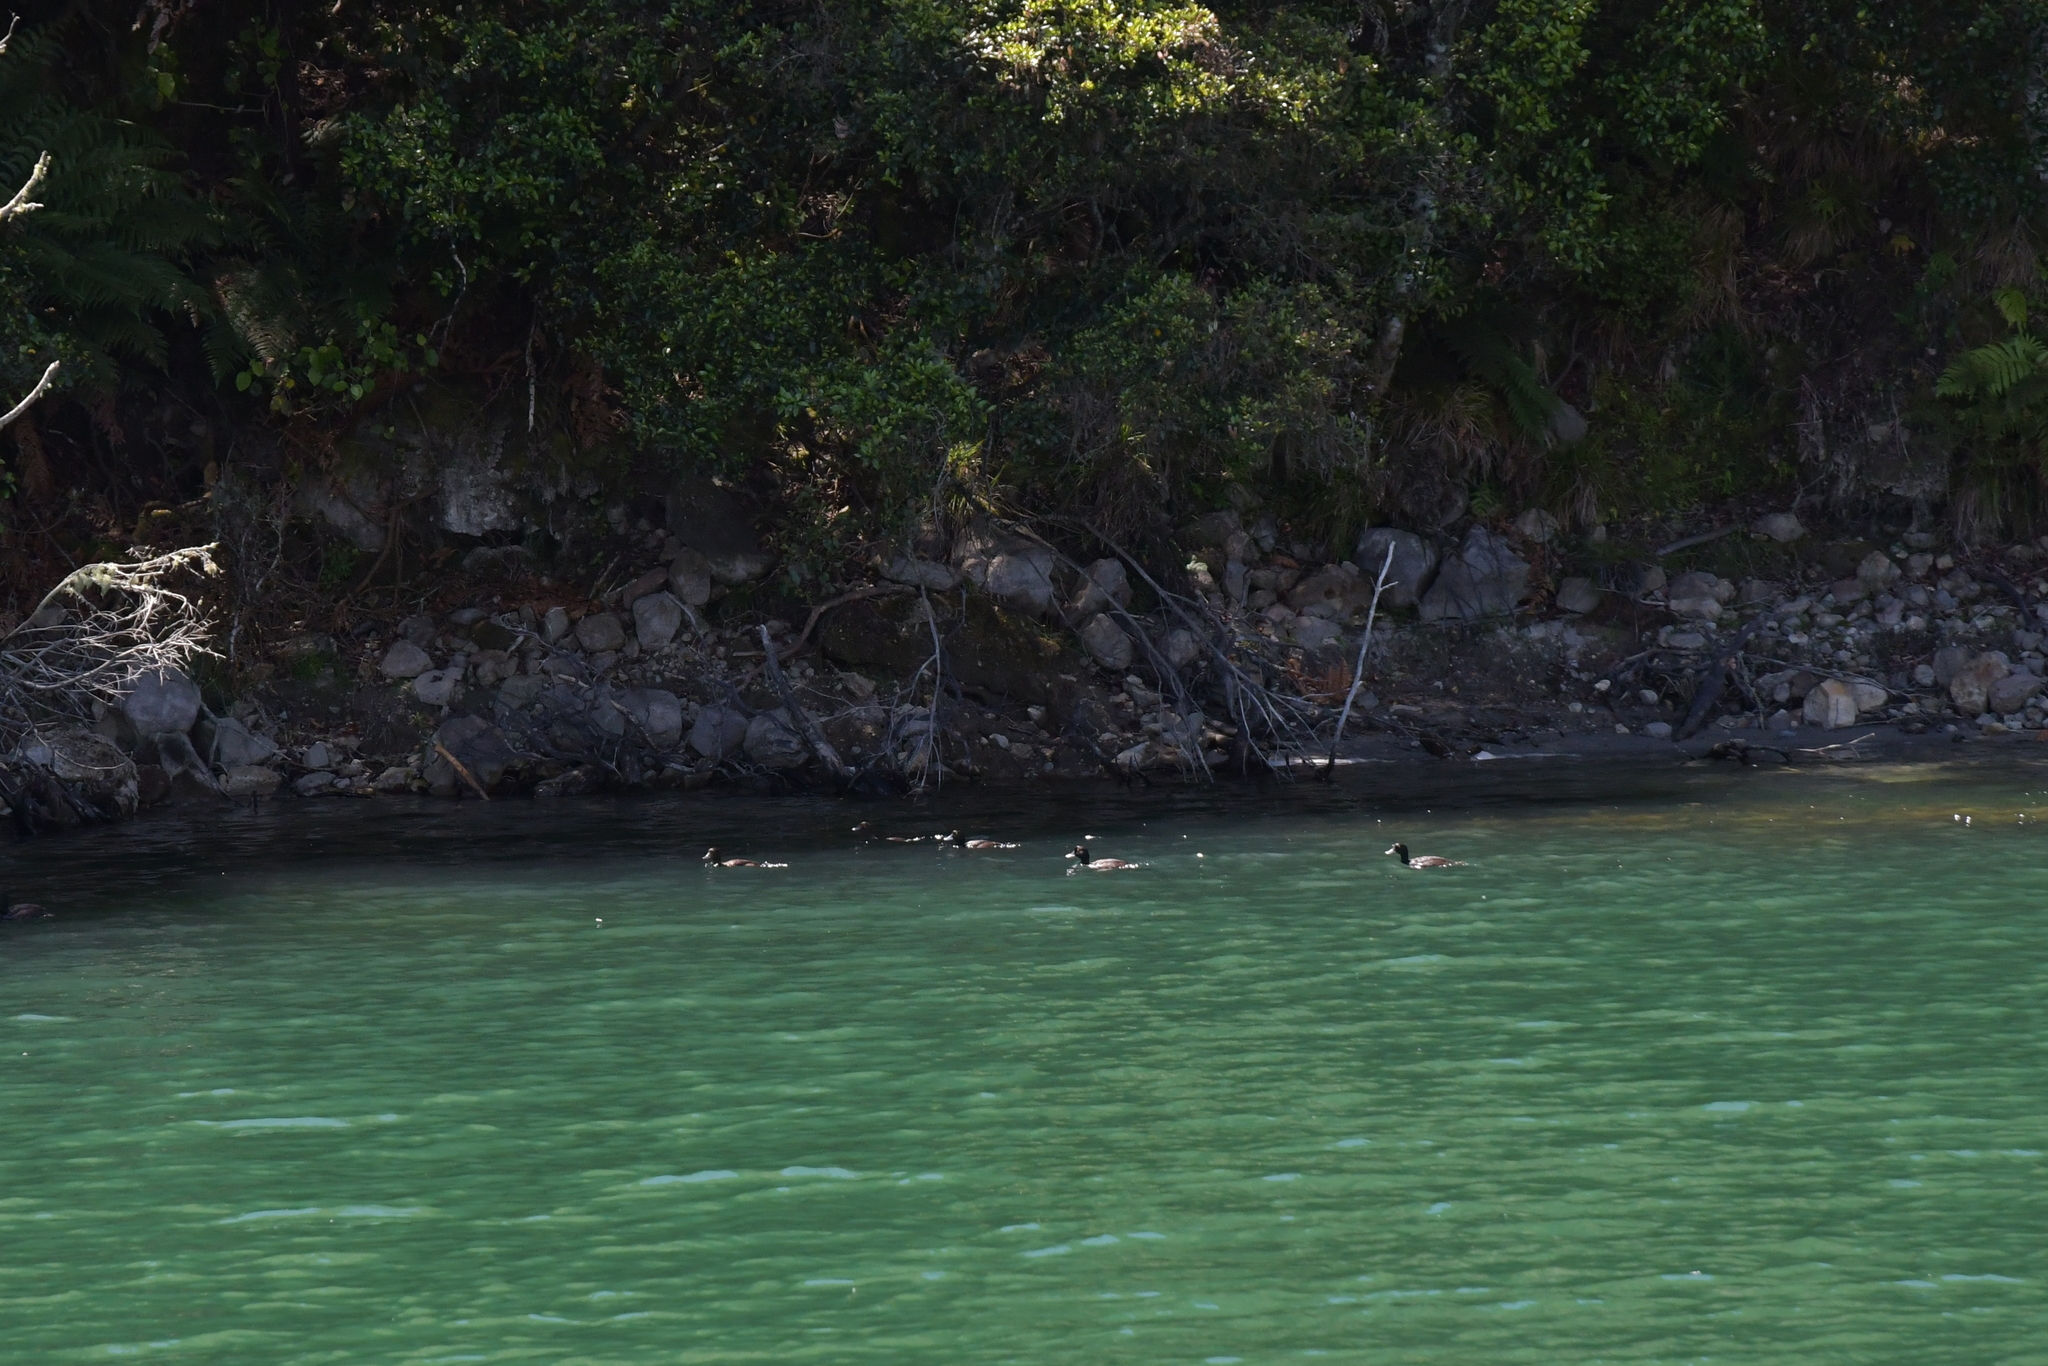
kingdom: Animalia
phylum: Chordata
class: Aves
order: Anseriformes
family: Anatidae
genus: Aythya
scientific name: Aythya novaeseelandiae
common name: New zealand scaup
